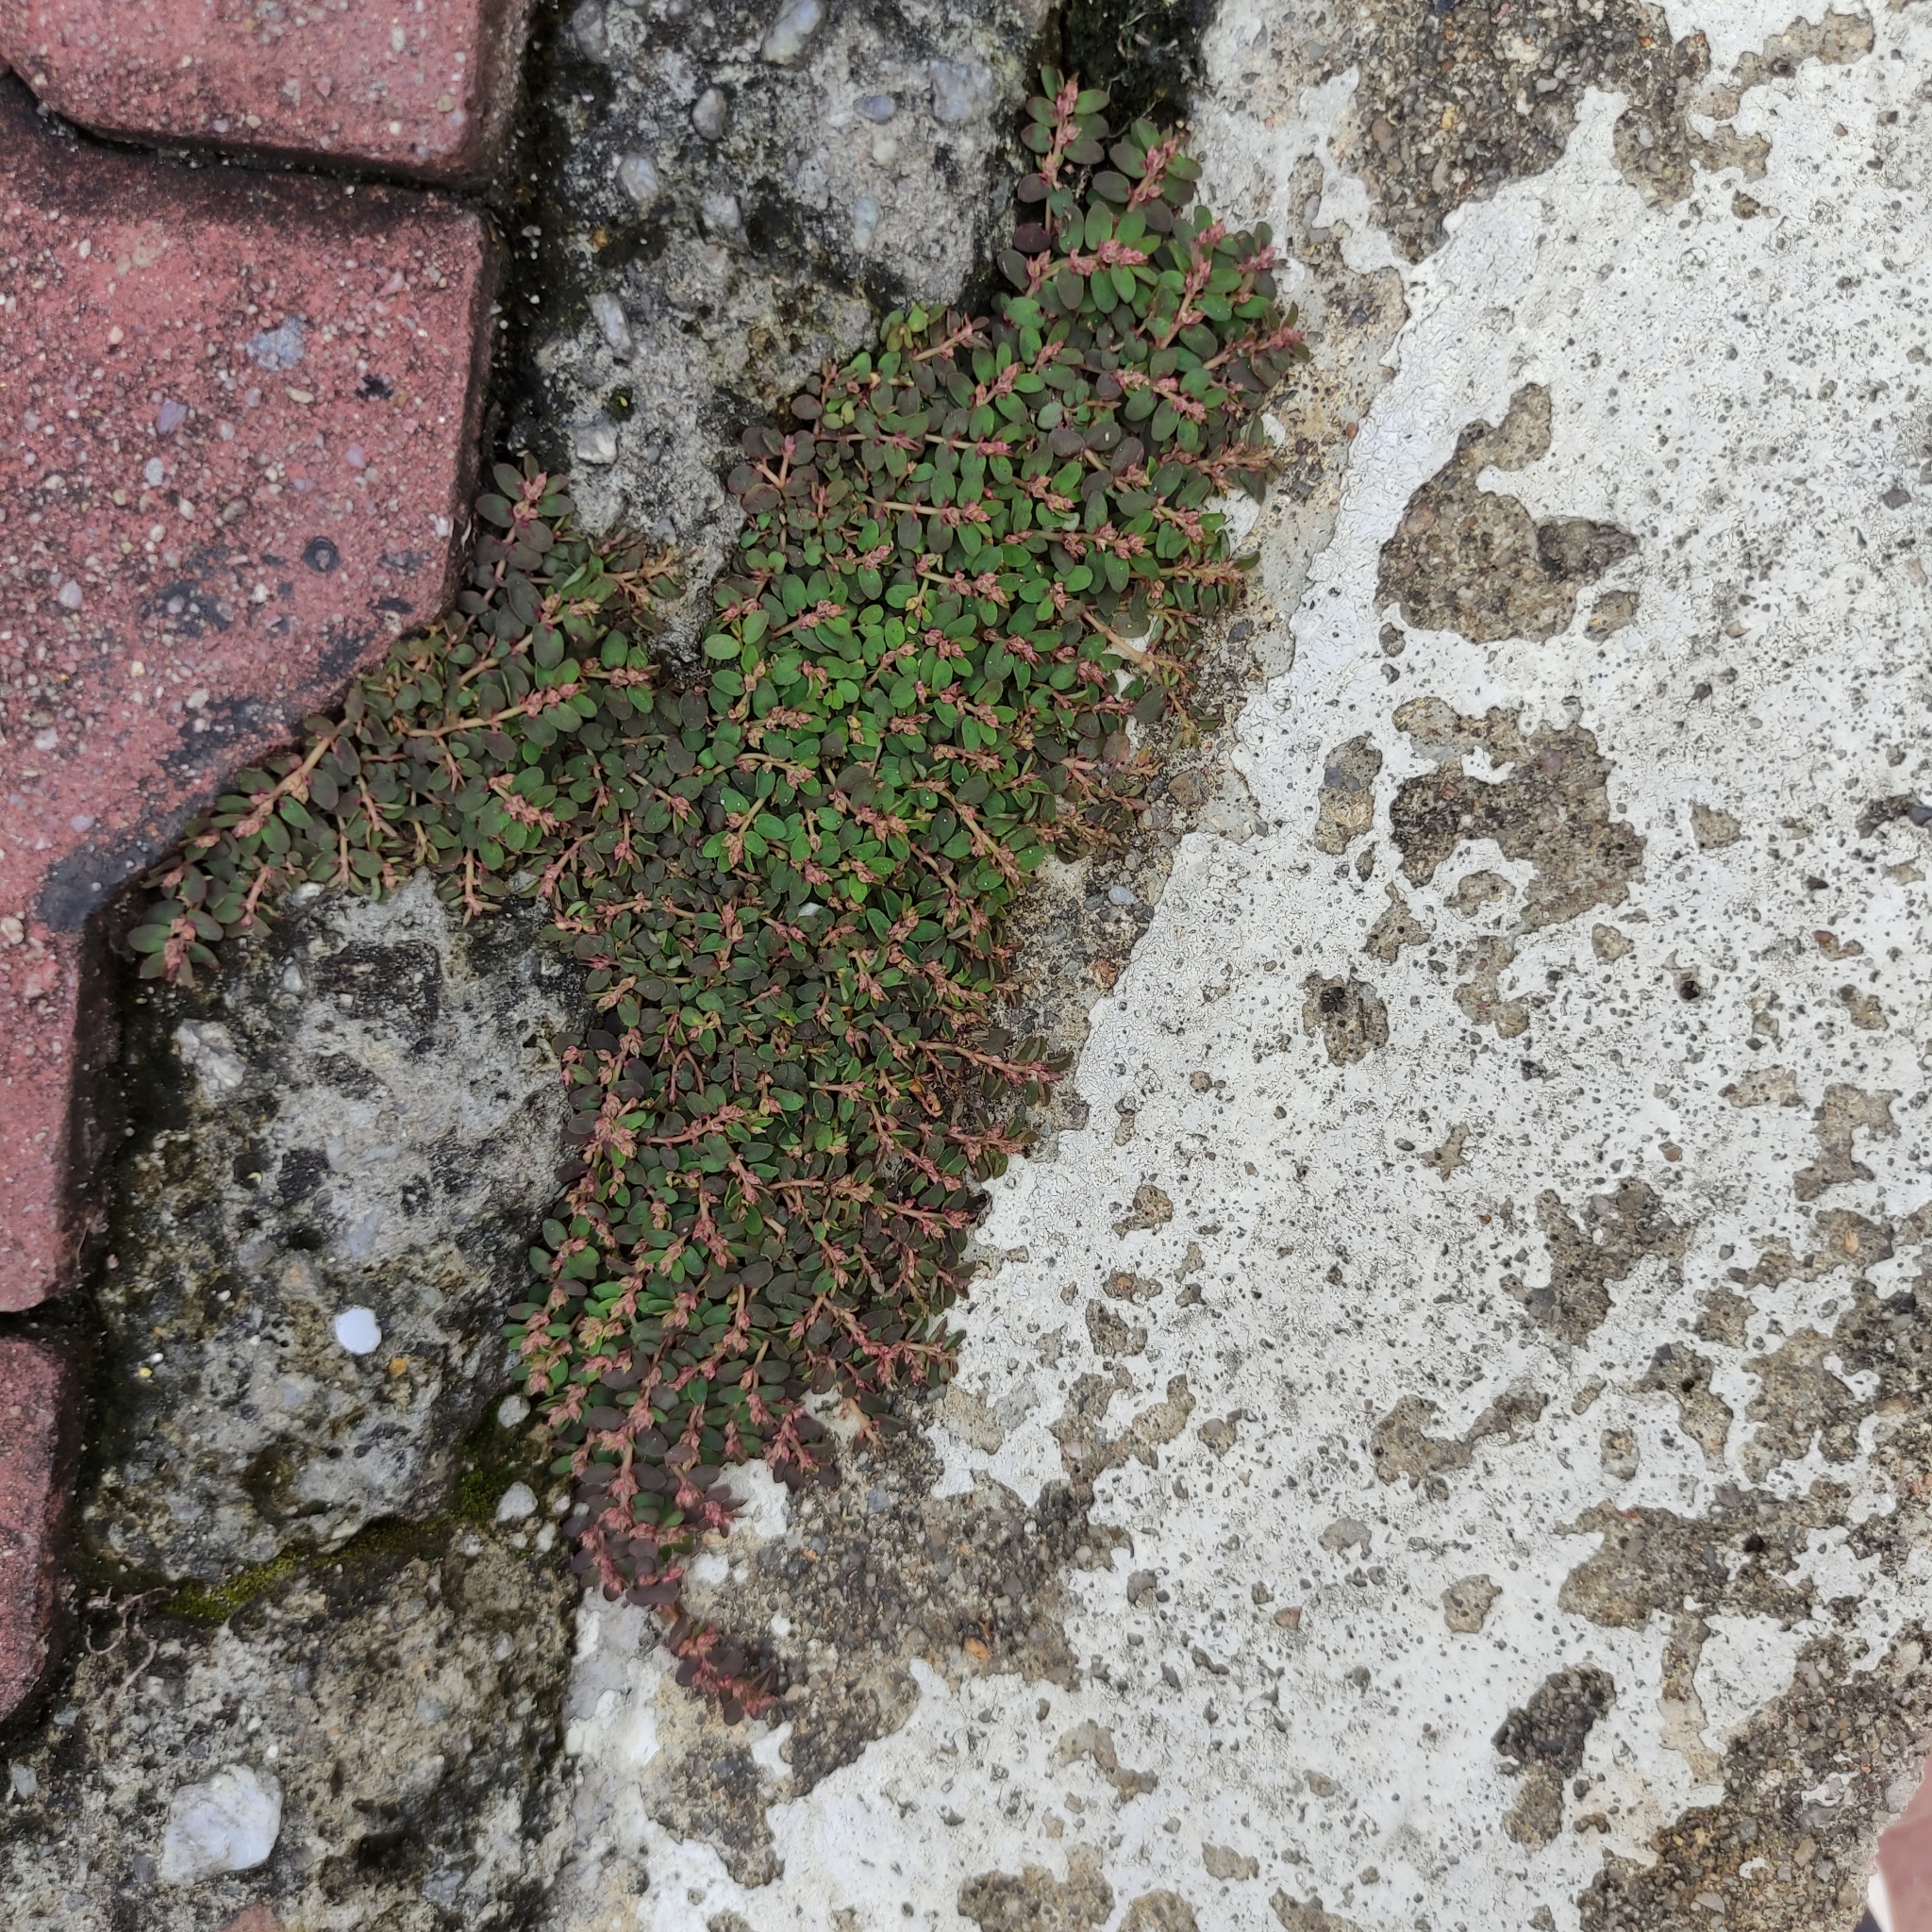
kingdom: Plantae
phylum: Tracheophyta
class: Magnoliopsida
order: Malpighiales
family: Euphorbiaceae
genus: Euphorbia
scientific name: Euphorbia thymifolia
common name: Gulf sandmat
